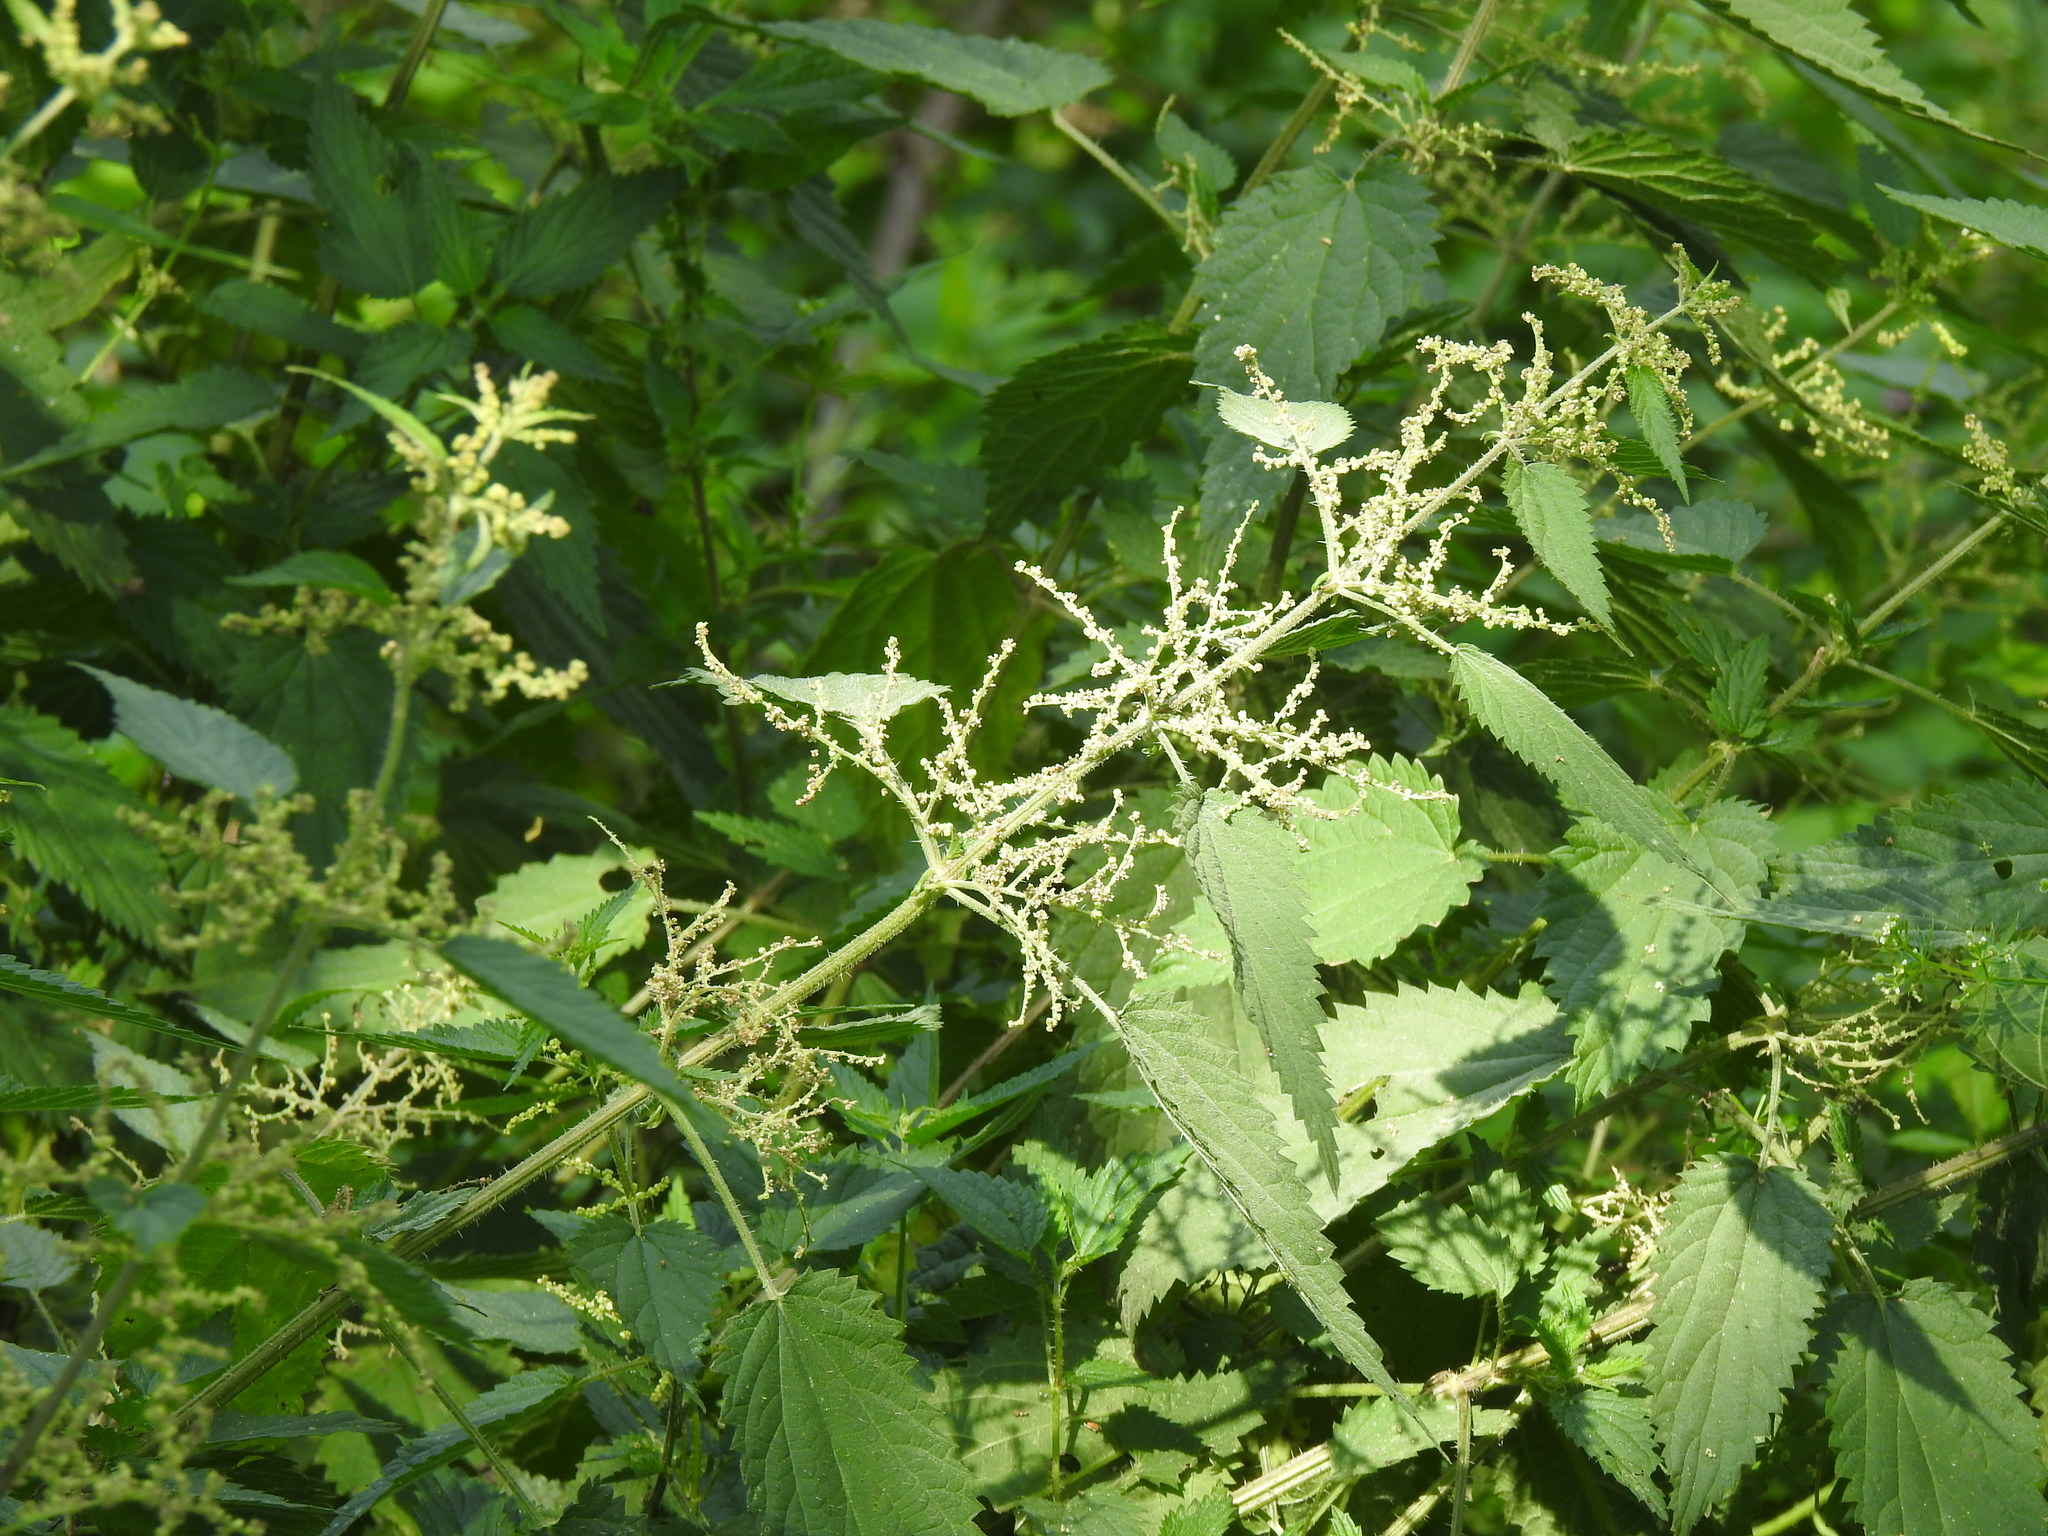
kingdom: Plantae
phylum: Tracheophyta
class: Magnoliopsida
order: Rosales
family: Urticaceae
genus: Urtica
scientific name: Urtica dioica
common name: Common nettle
